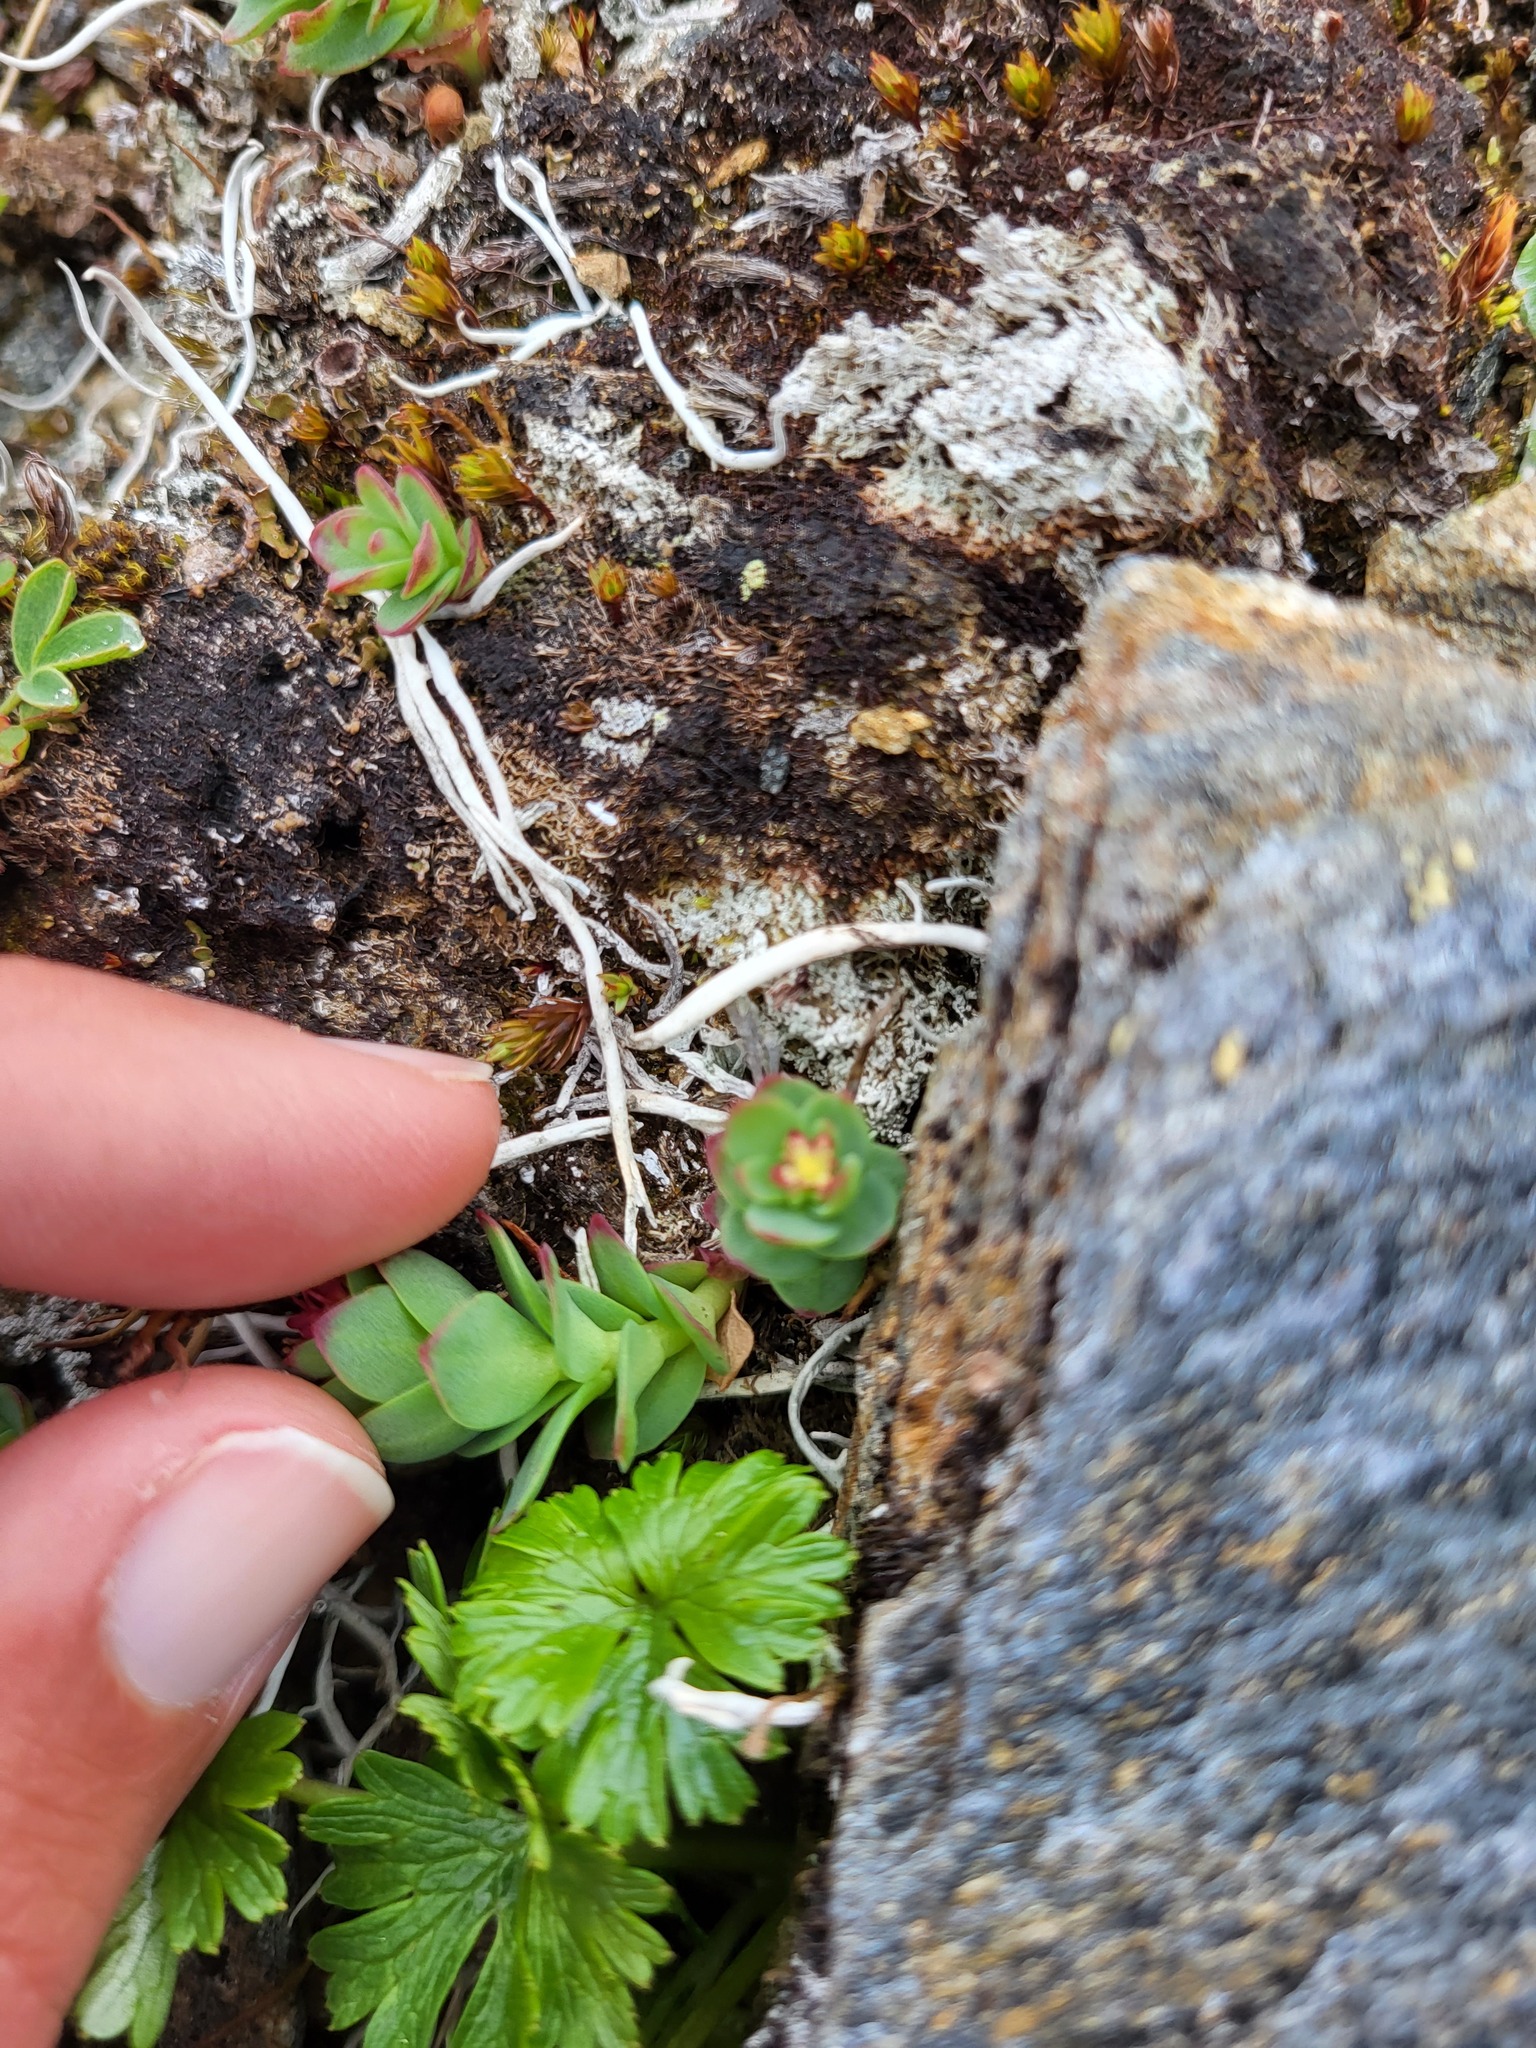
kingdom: Plantae
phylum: Tracheophyta
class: Magnoliopsida
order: Saxifragales
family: Crassulaceae
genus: Rhodiola
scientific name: Rhodiola integrifolia
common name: Western roseroot
